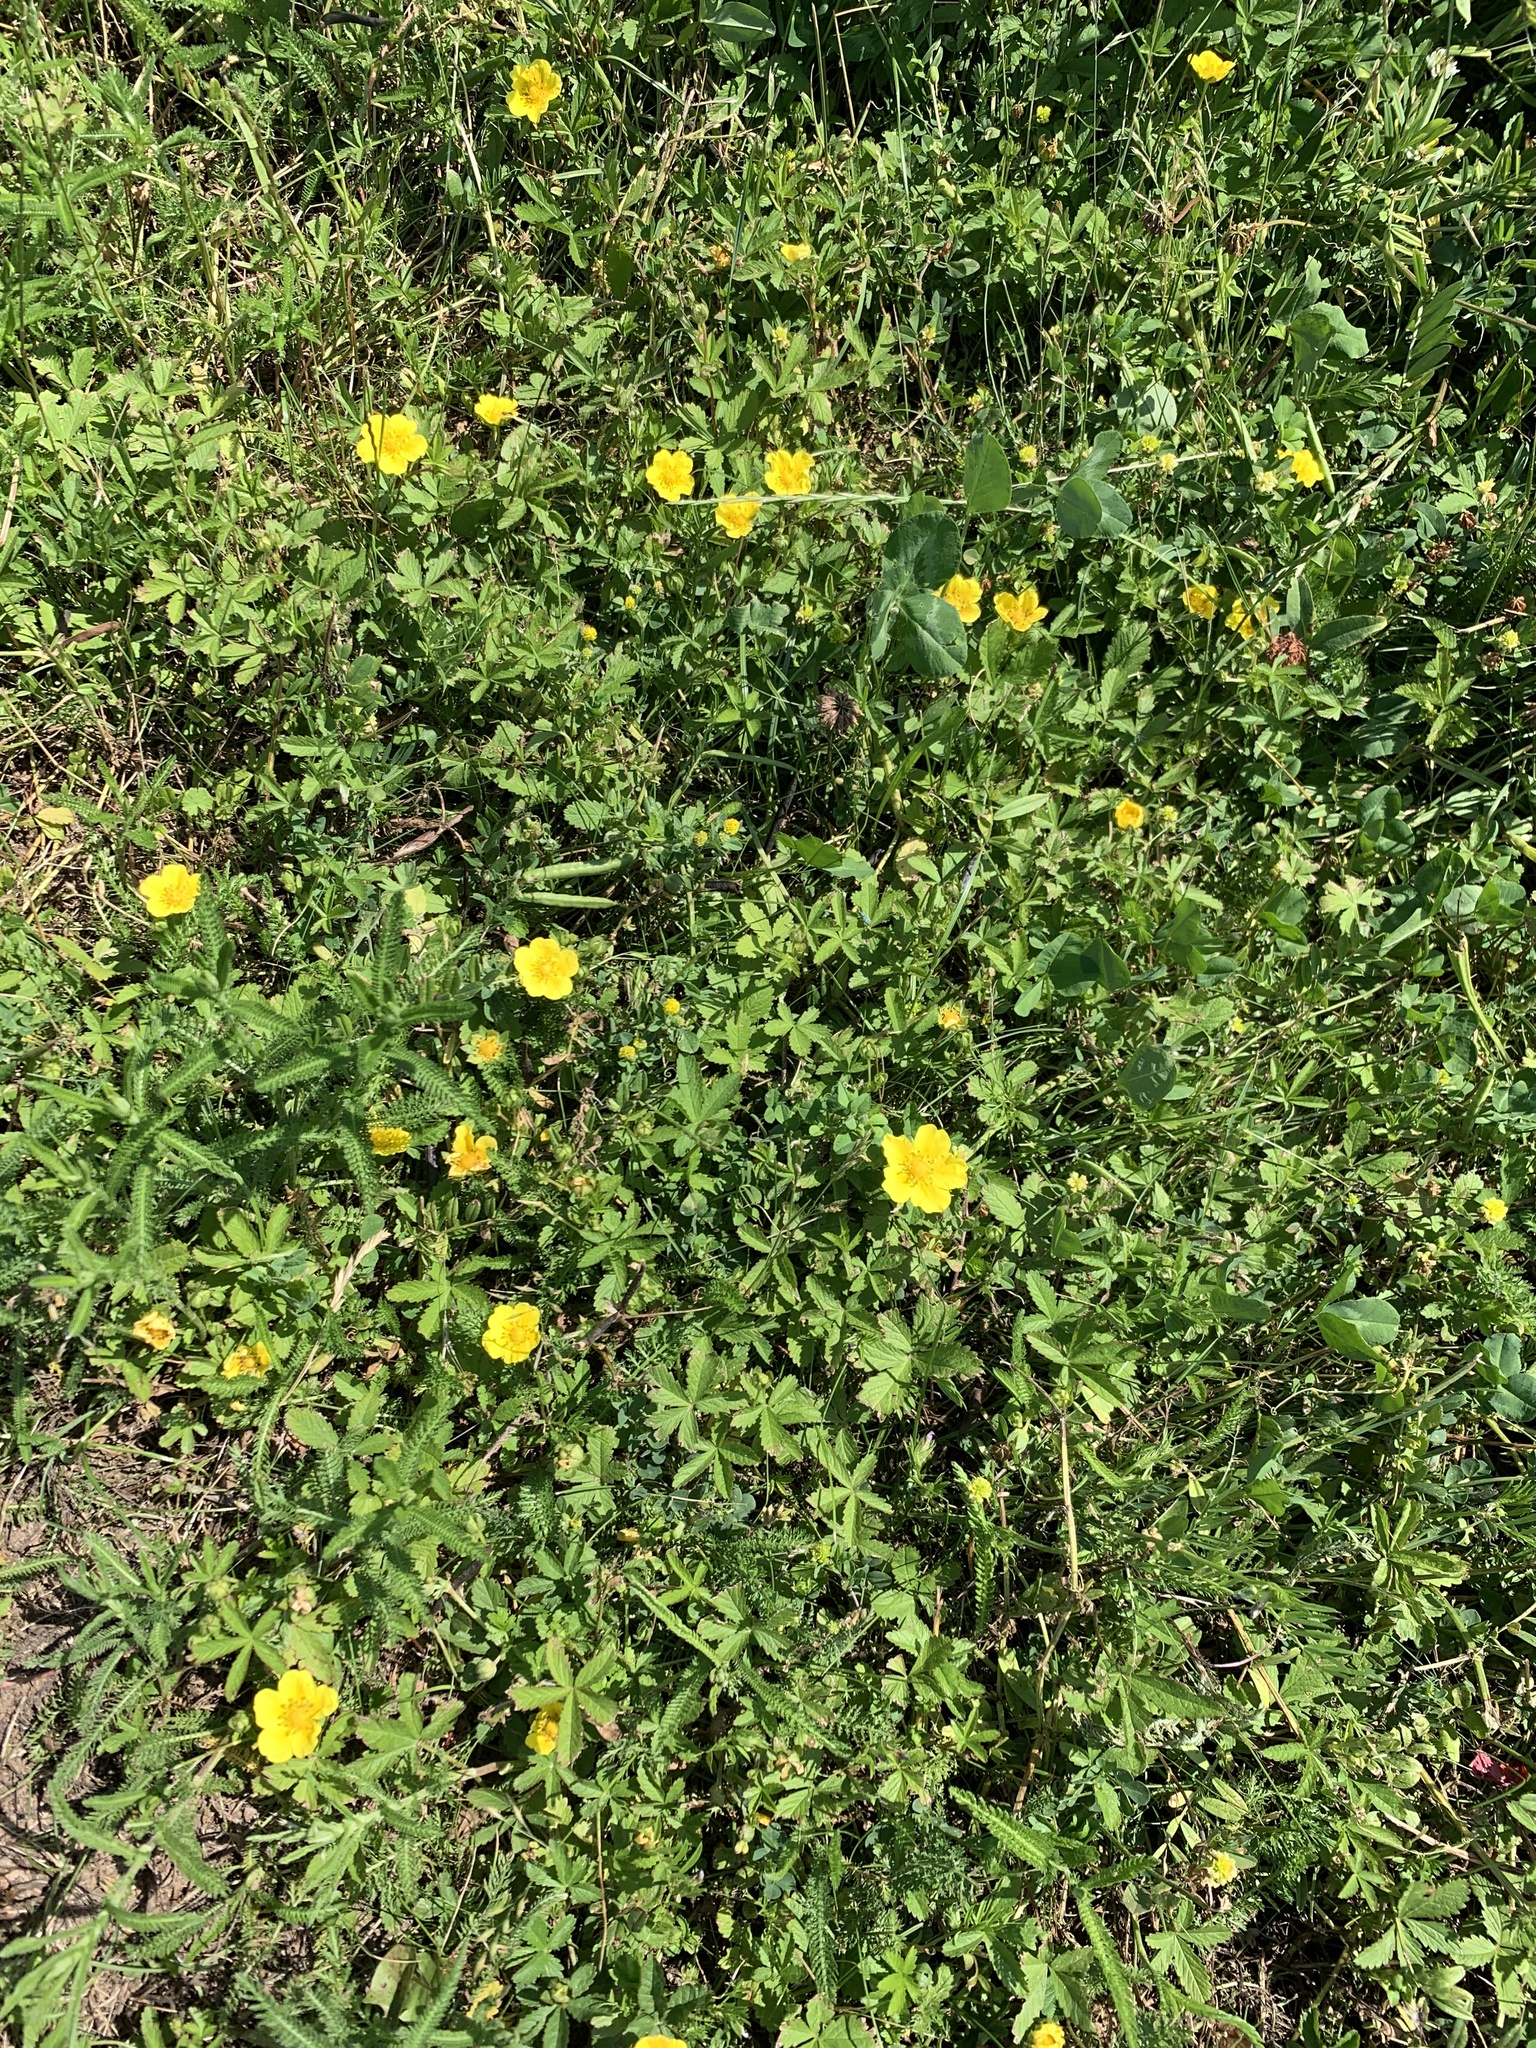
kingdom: Plantae
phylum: Tracheophyta
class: Magnoliopsida
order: Rosales
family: Rosaceae
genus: Potentilla
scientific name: Potentilla reptans
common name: Creeping cinquefoil
